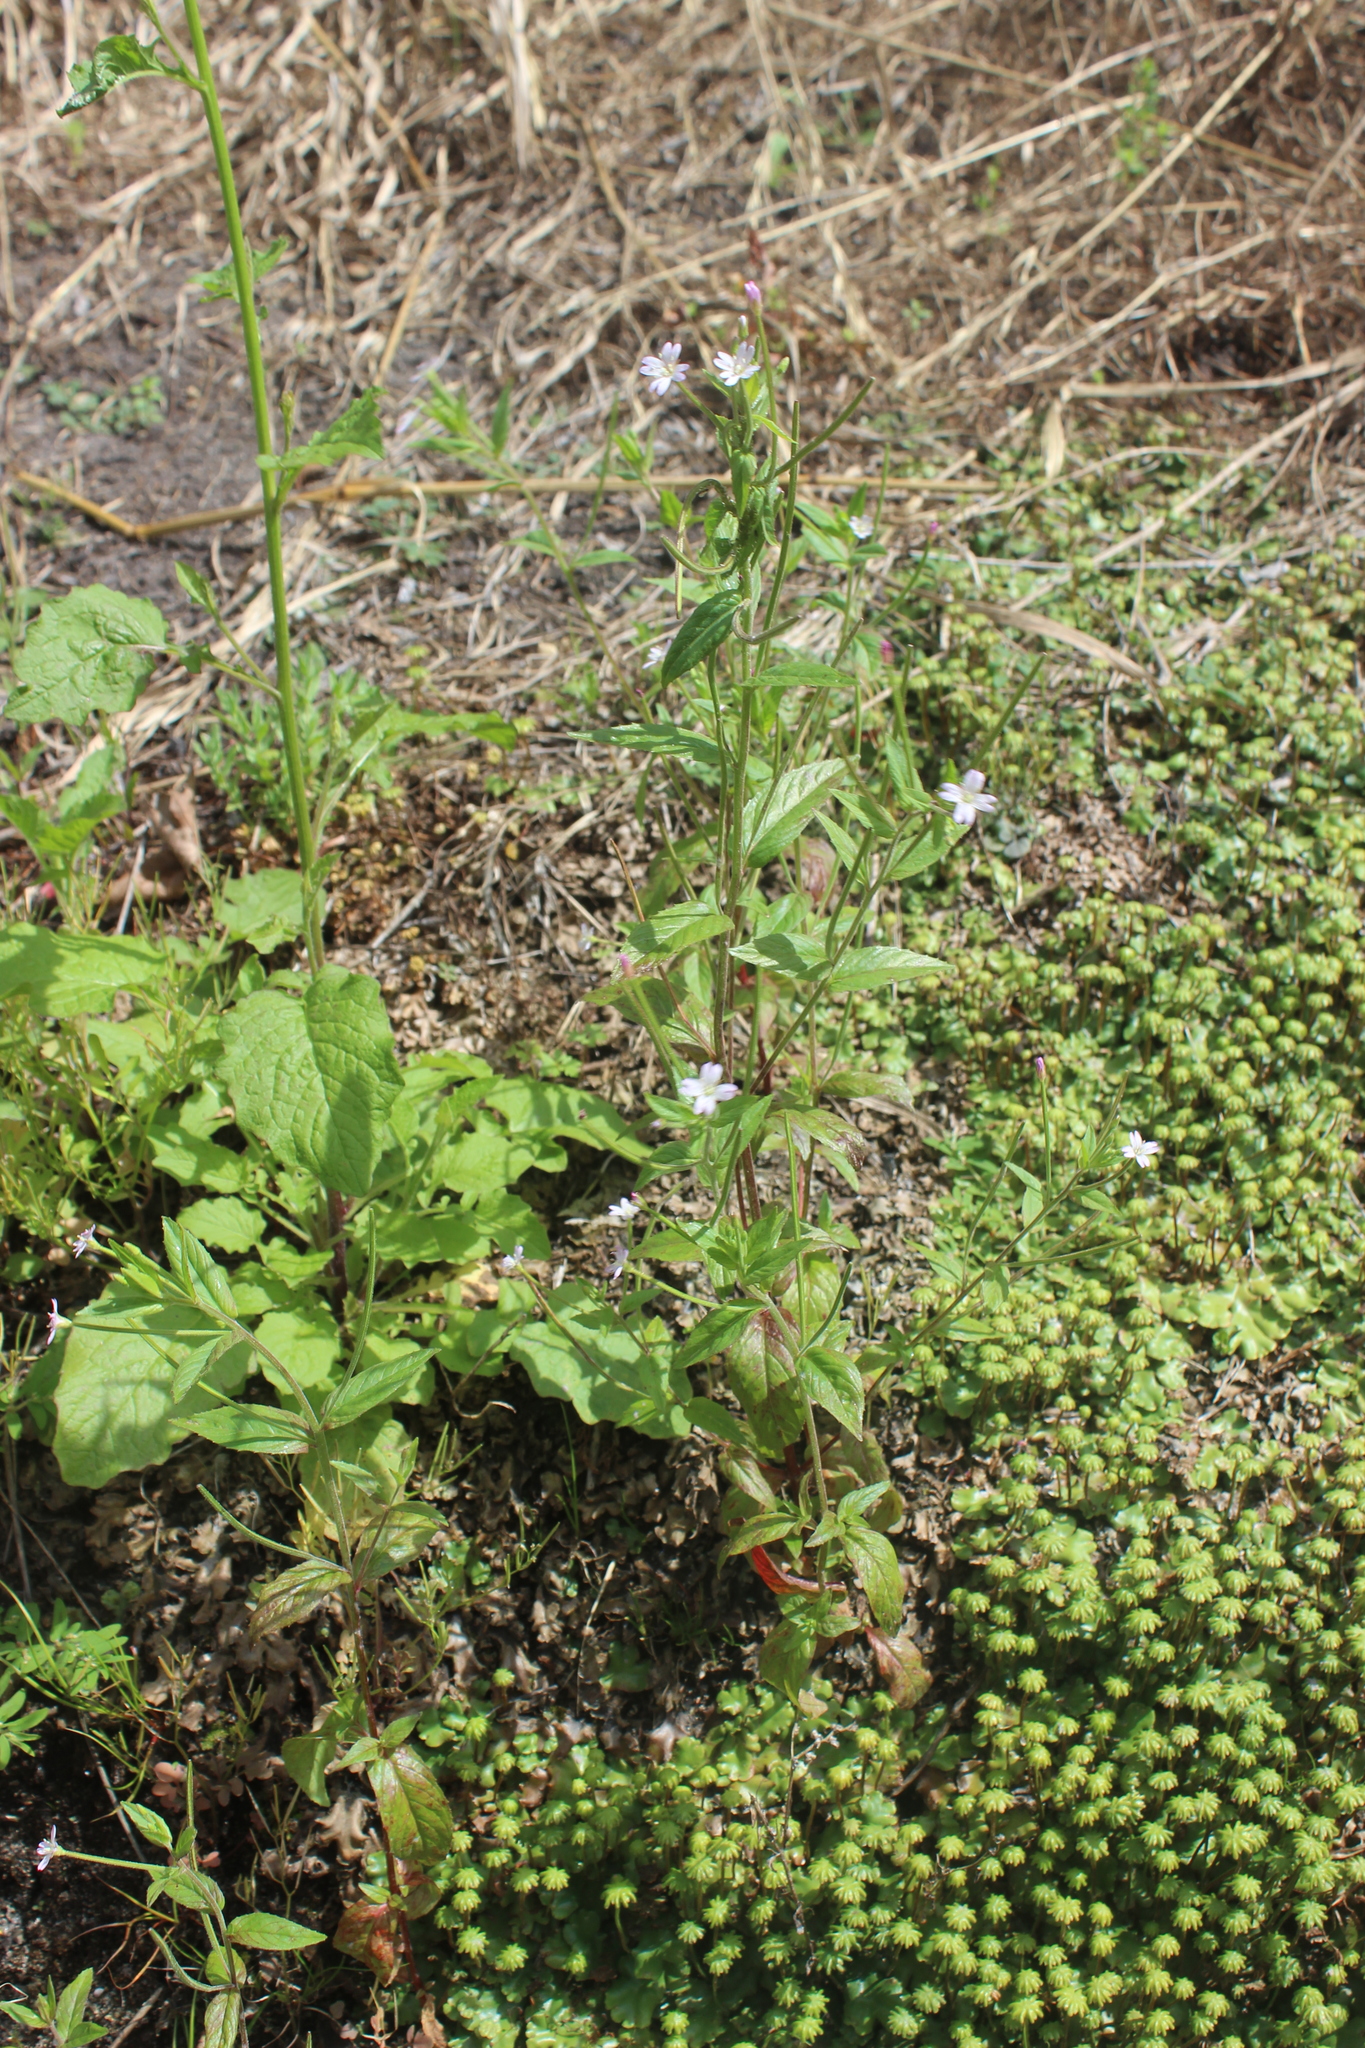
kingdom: Plantae
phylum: Tracheophyta
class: Magnoliopsida
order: Myrtales
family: Onagraceae
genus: Epilobium
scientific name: Epilobium ciliatum
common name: American willowherb
